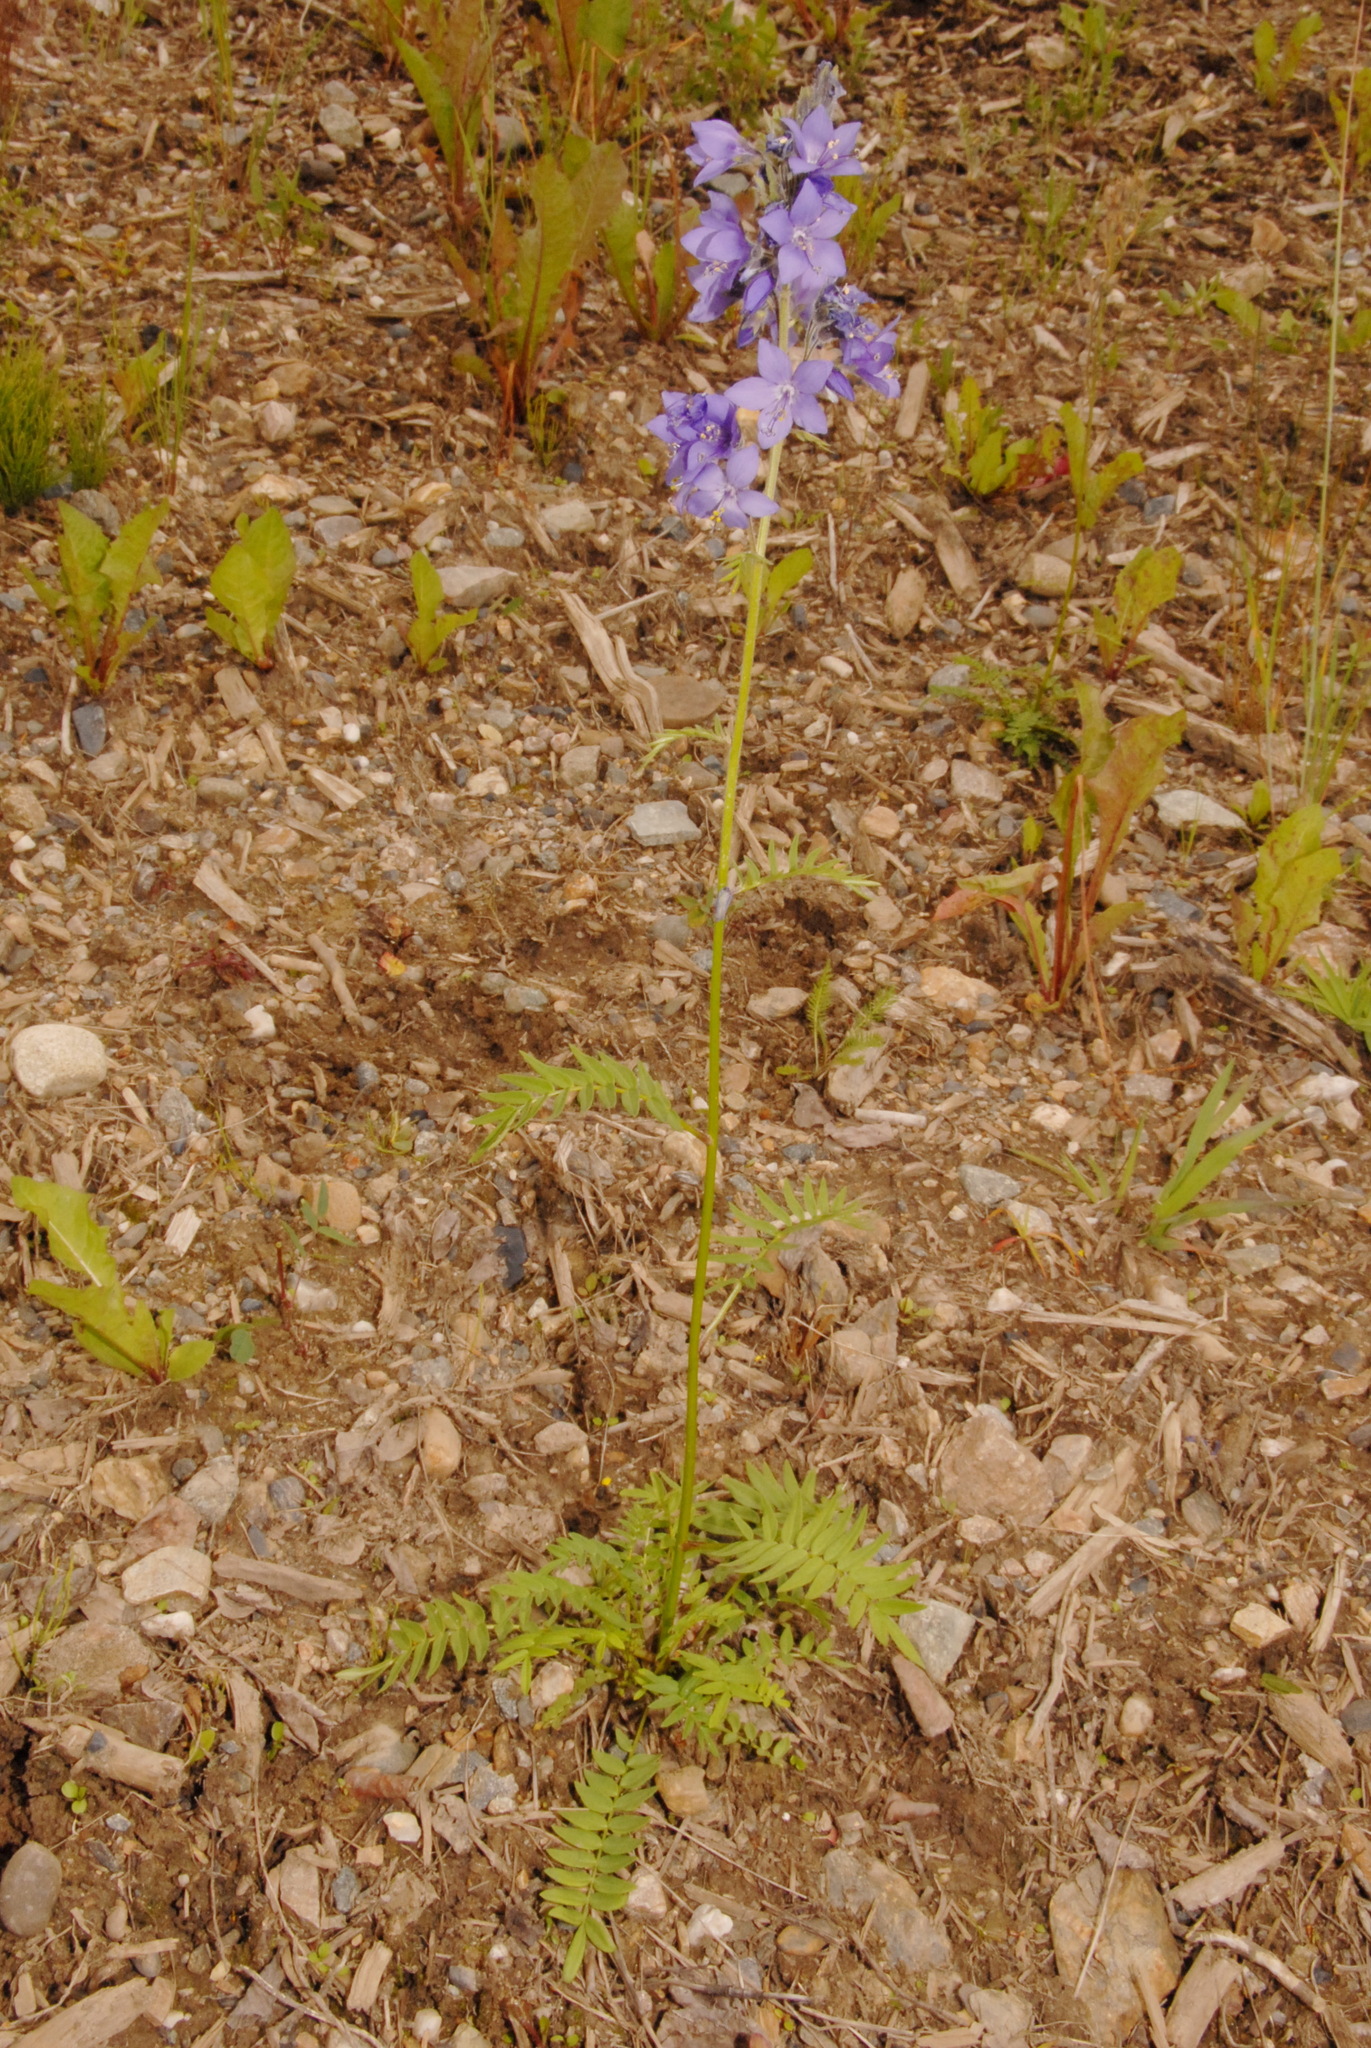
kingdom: Plantae
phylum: Tracheophyta
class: Magnoliopsida
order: Ericales
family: Polemoniaceae
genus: Polemonium
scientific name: Polemonium acutiflorum
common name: Tall jacob's-ladder
